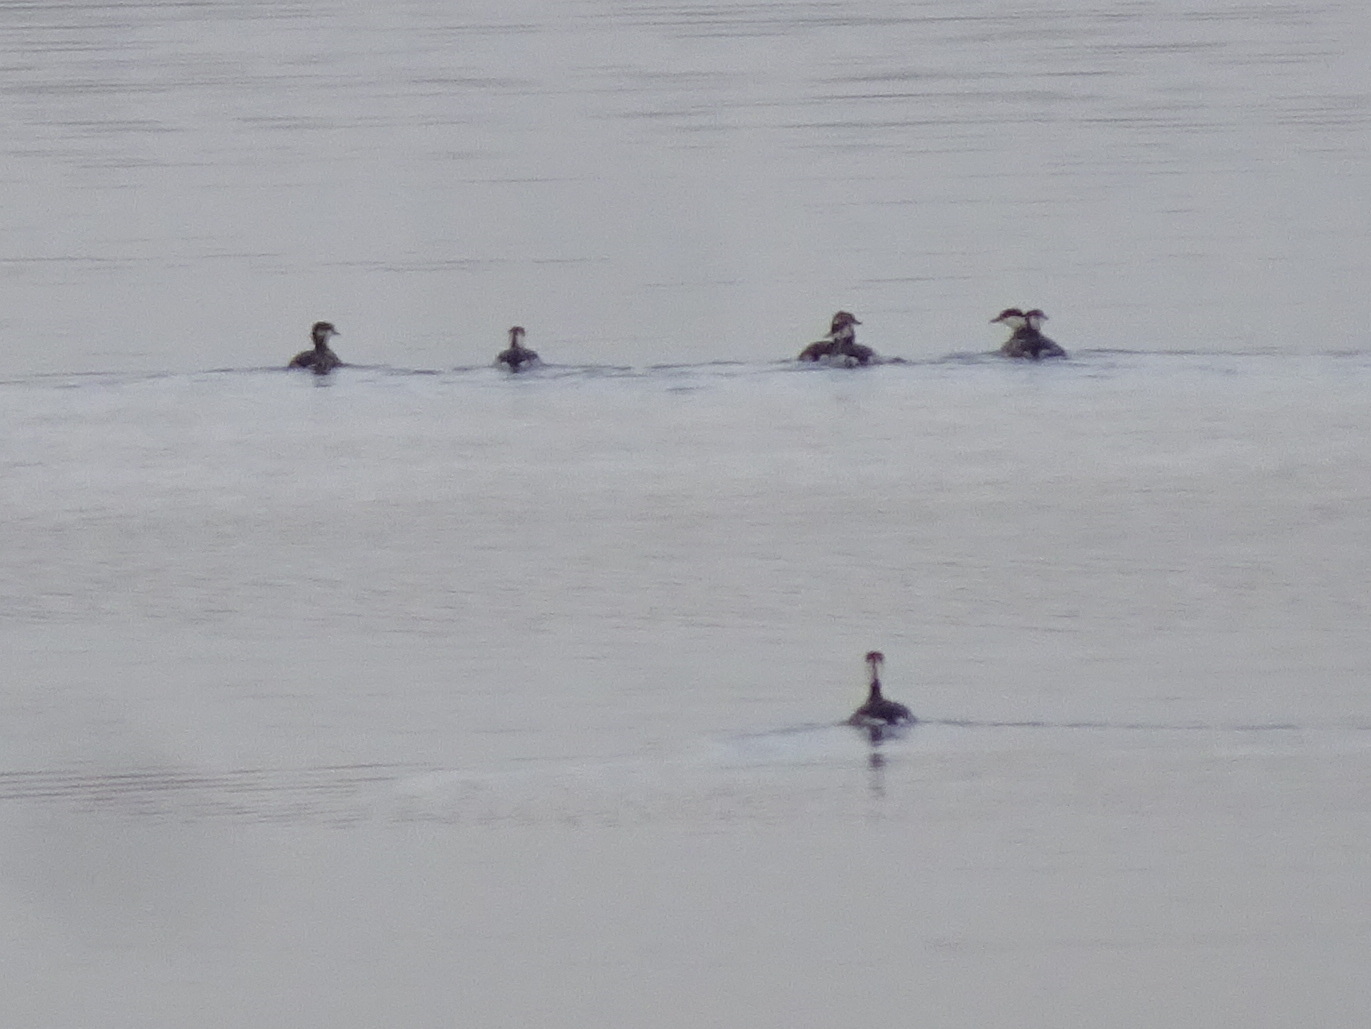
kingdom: Animalia
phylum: Chordata
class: Aves
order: Podicipediformes
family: Podicipedidae
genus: Podiceps
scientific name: Podiceps auritus
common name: Horned grebe
